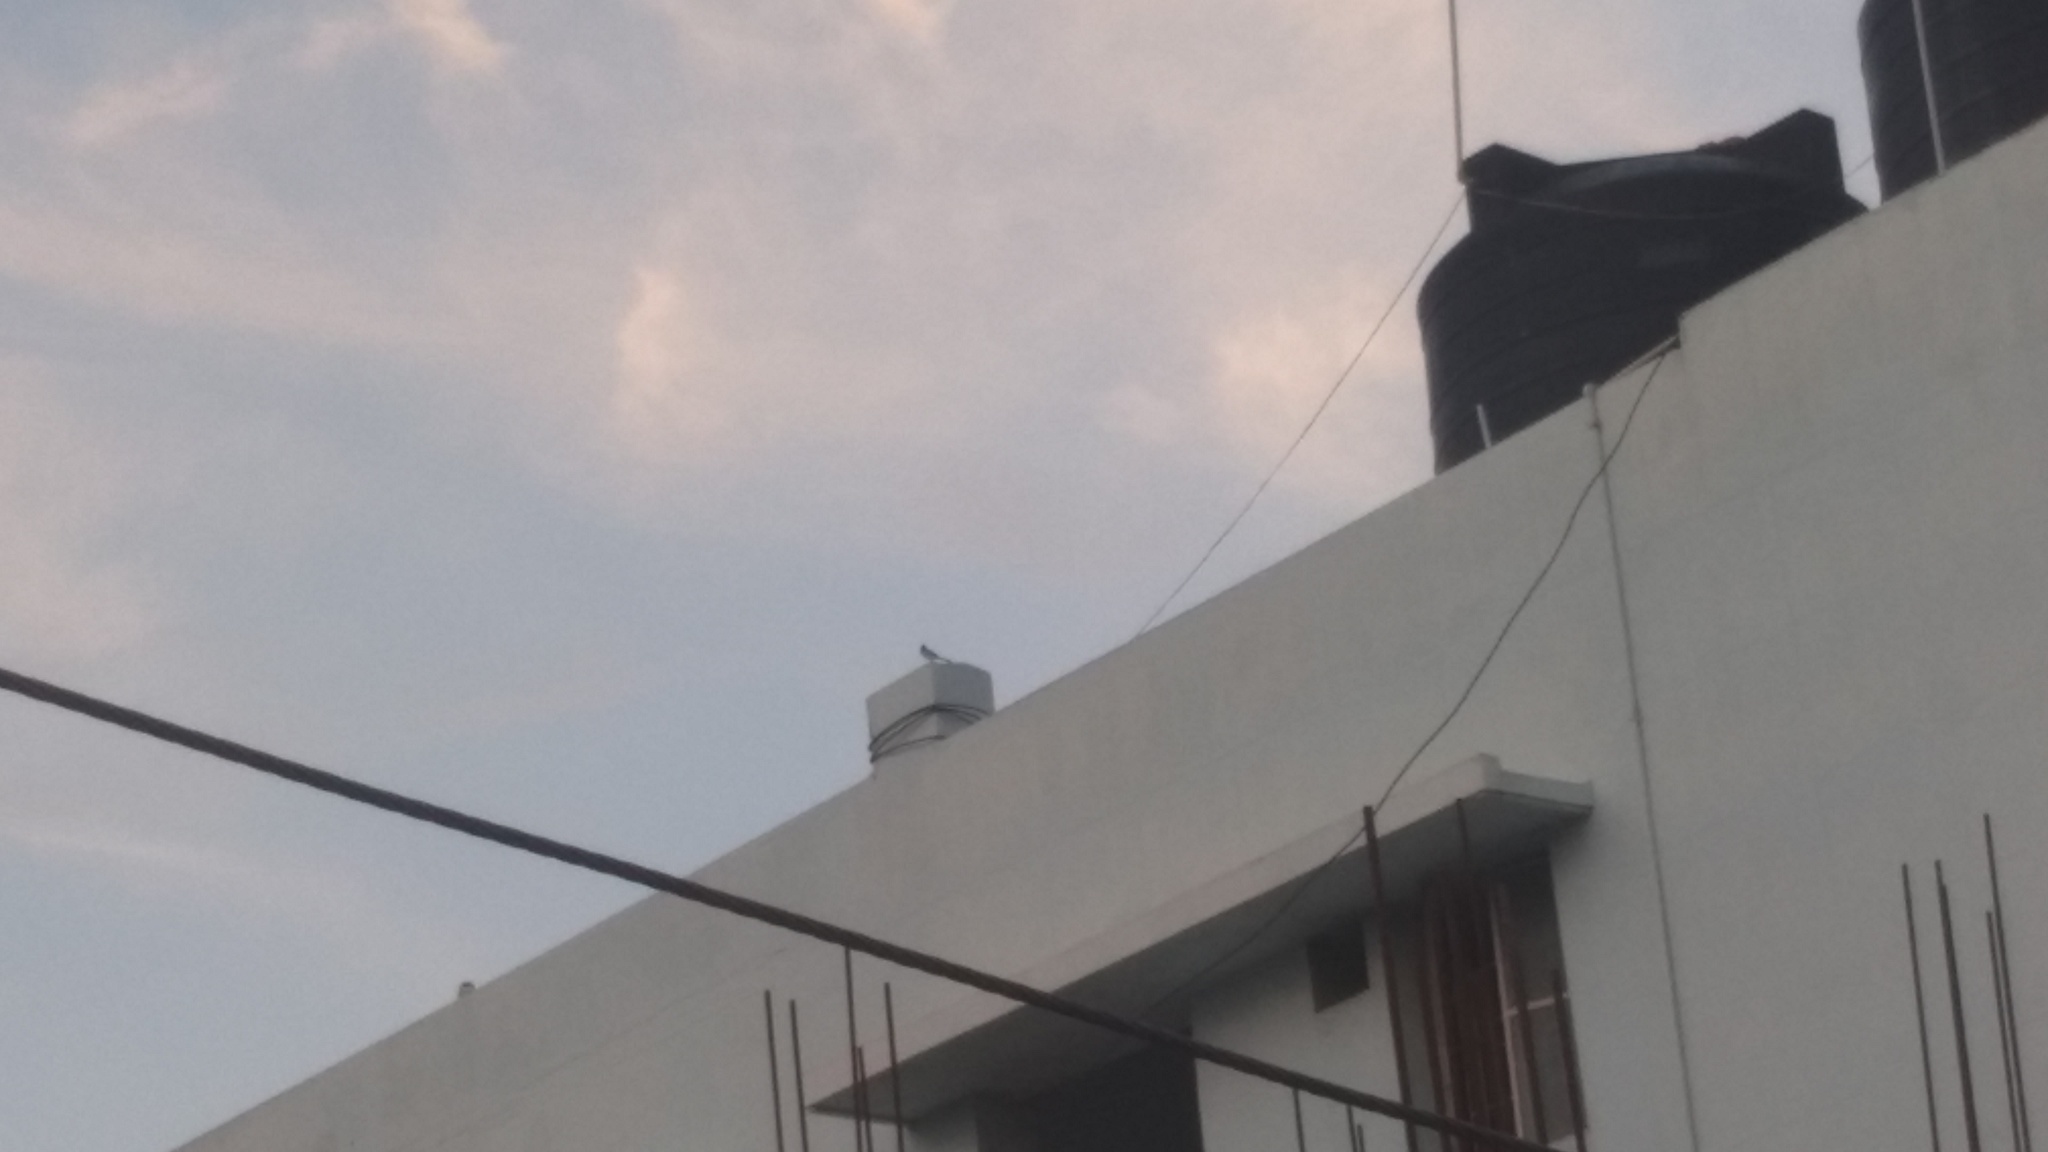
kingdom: Animalia
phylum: Chordata
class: Aves
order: Passeriformes
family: Motacillidae
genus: Motacilla
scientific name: Motacilla maderaspatensis
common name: White-browed wagtail
